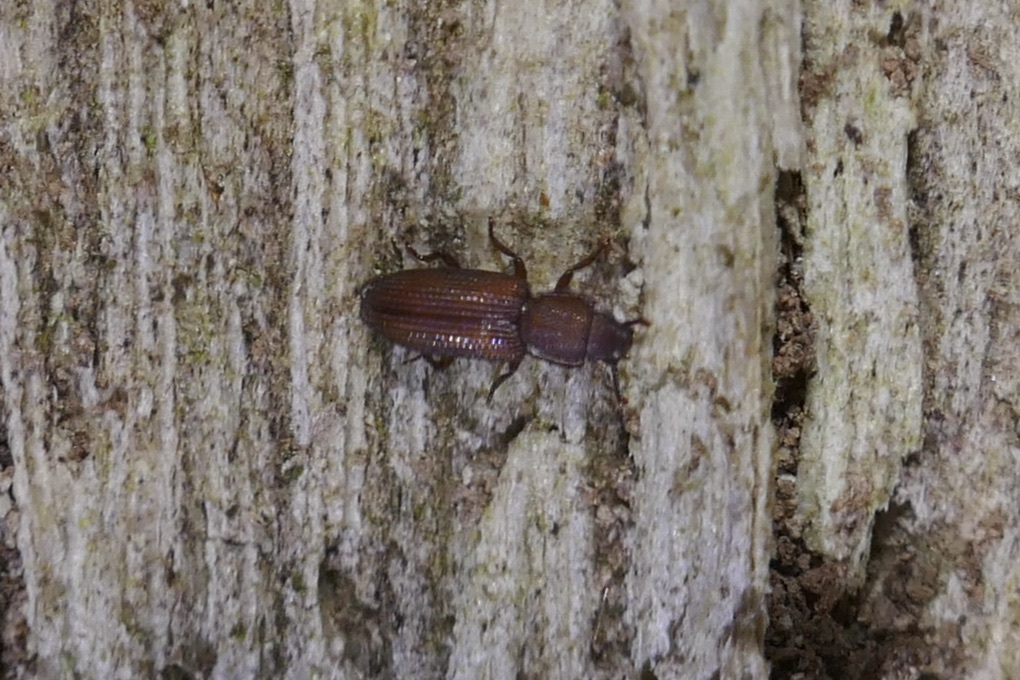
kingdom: Animalia
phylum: Arthropoda
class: Insecta
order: Coleoptera
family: Zopheridae
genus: Pycnomerus
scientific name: Pycnomerus terebrans
